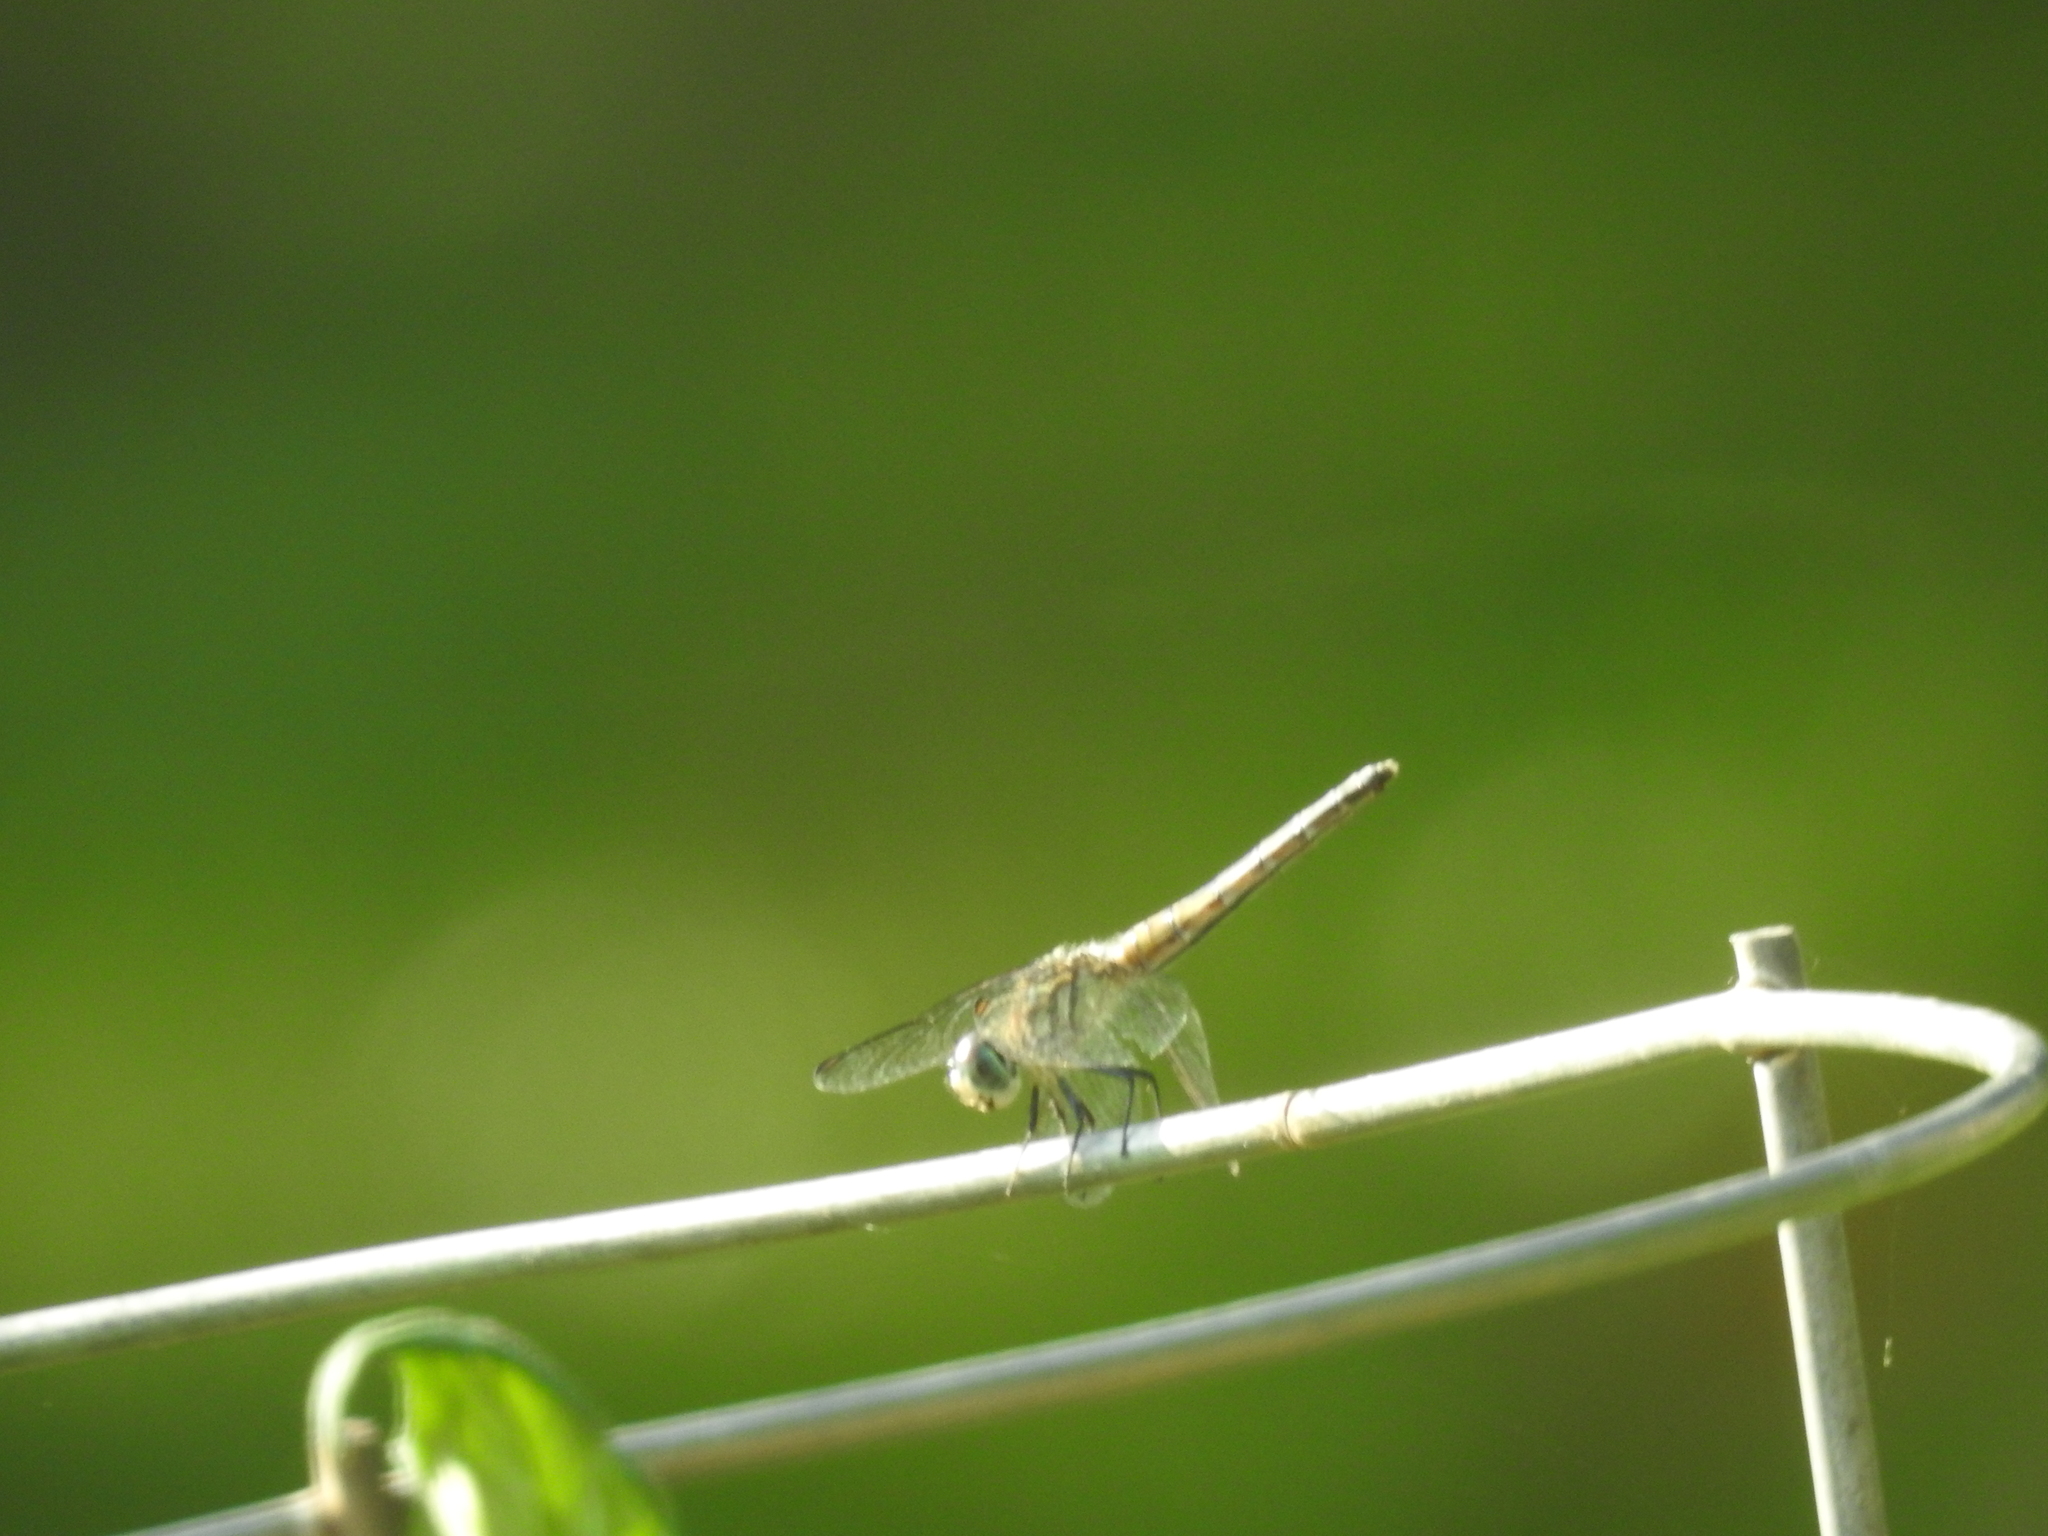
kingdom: Animalia
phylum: Arthropoda
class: Insecta
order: Odonata
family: Libellulidae
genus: Pachydiplax
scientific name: Pachydiplax longipennis
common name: Blue dasher
